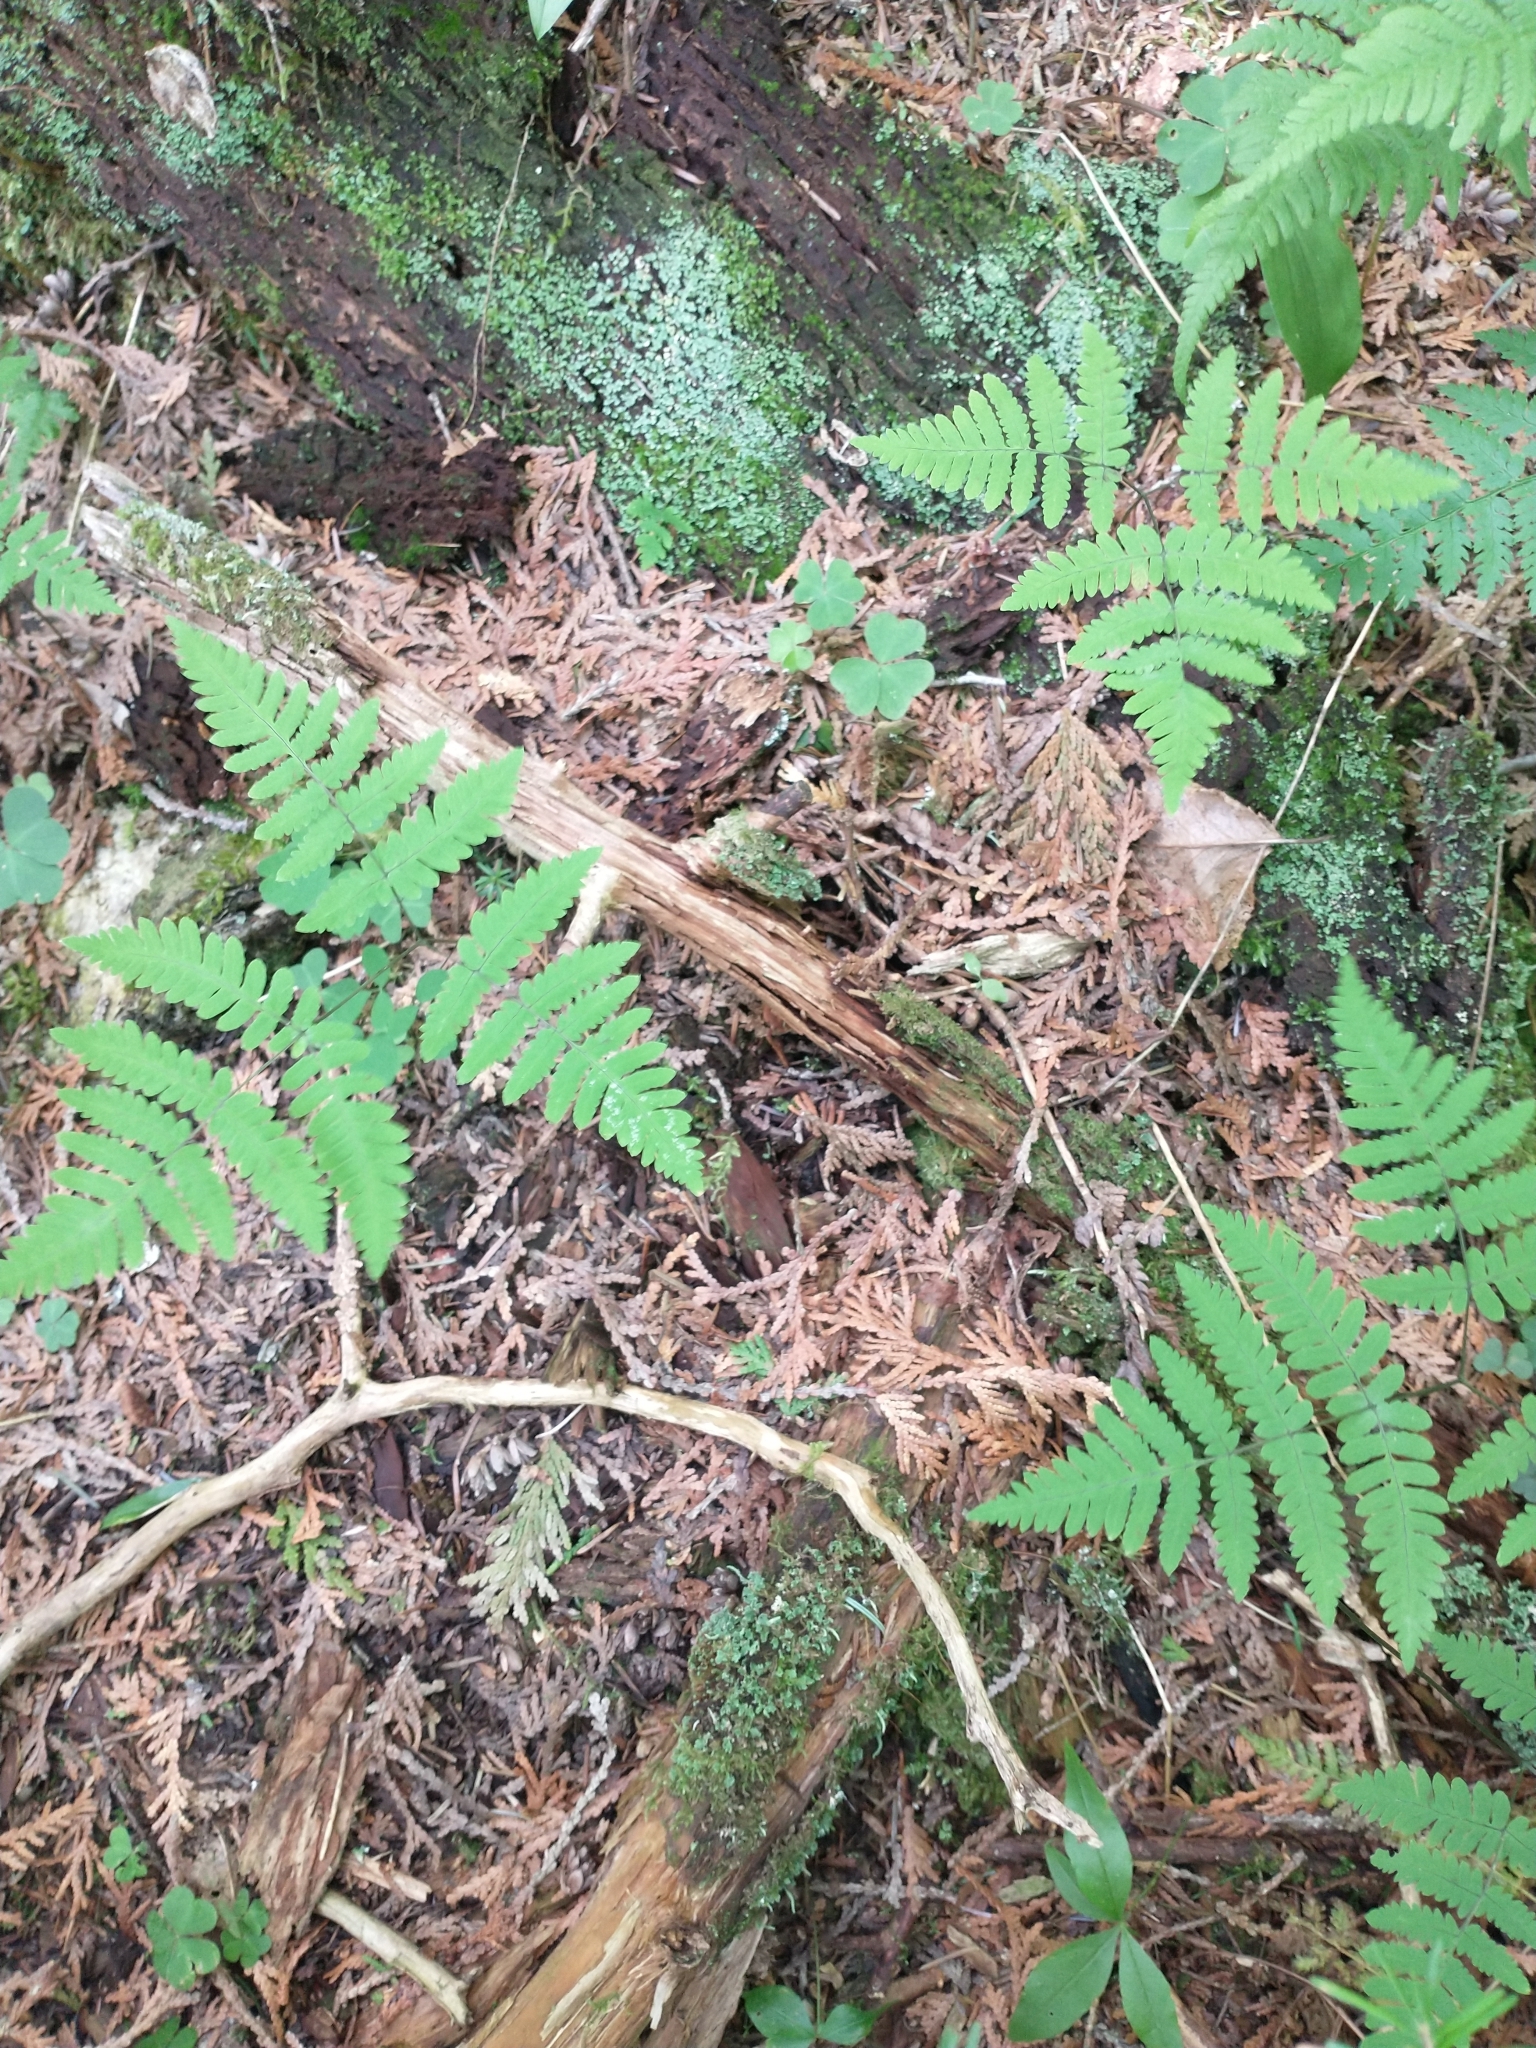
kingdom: Plantae
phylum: Tracheophyta
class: Polypodiopsida
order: Polypodiales
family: Cystopteridaceae
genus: Gymnocarpium
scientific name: Gymnocarpium dryopteris
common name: Oak fern
